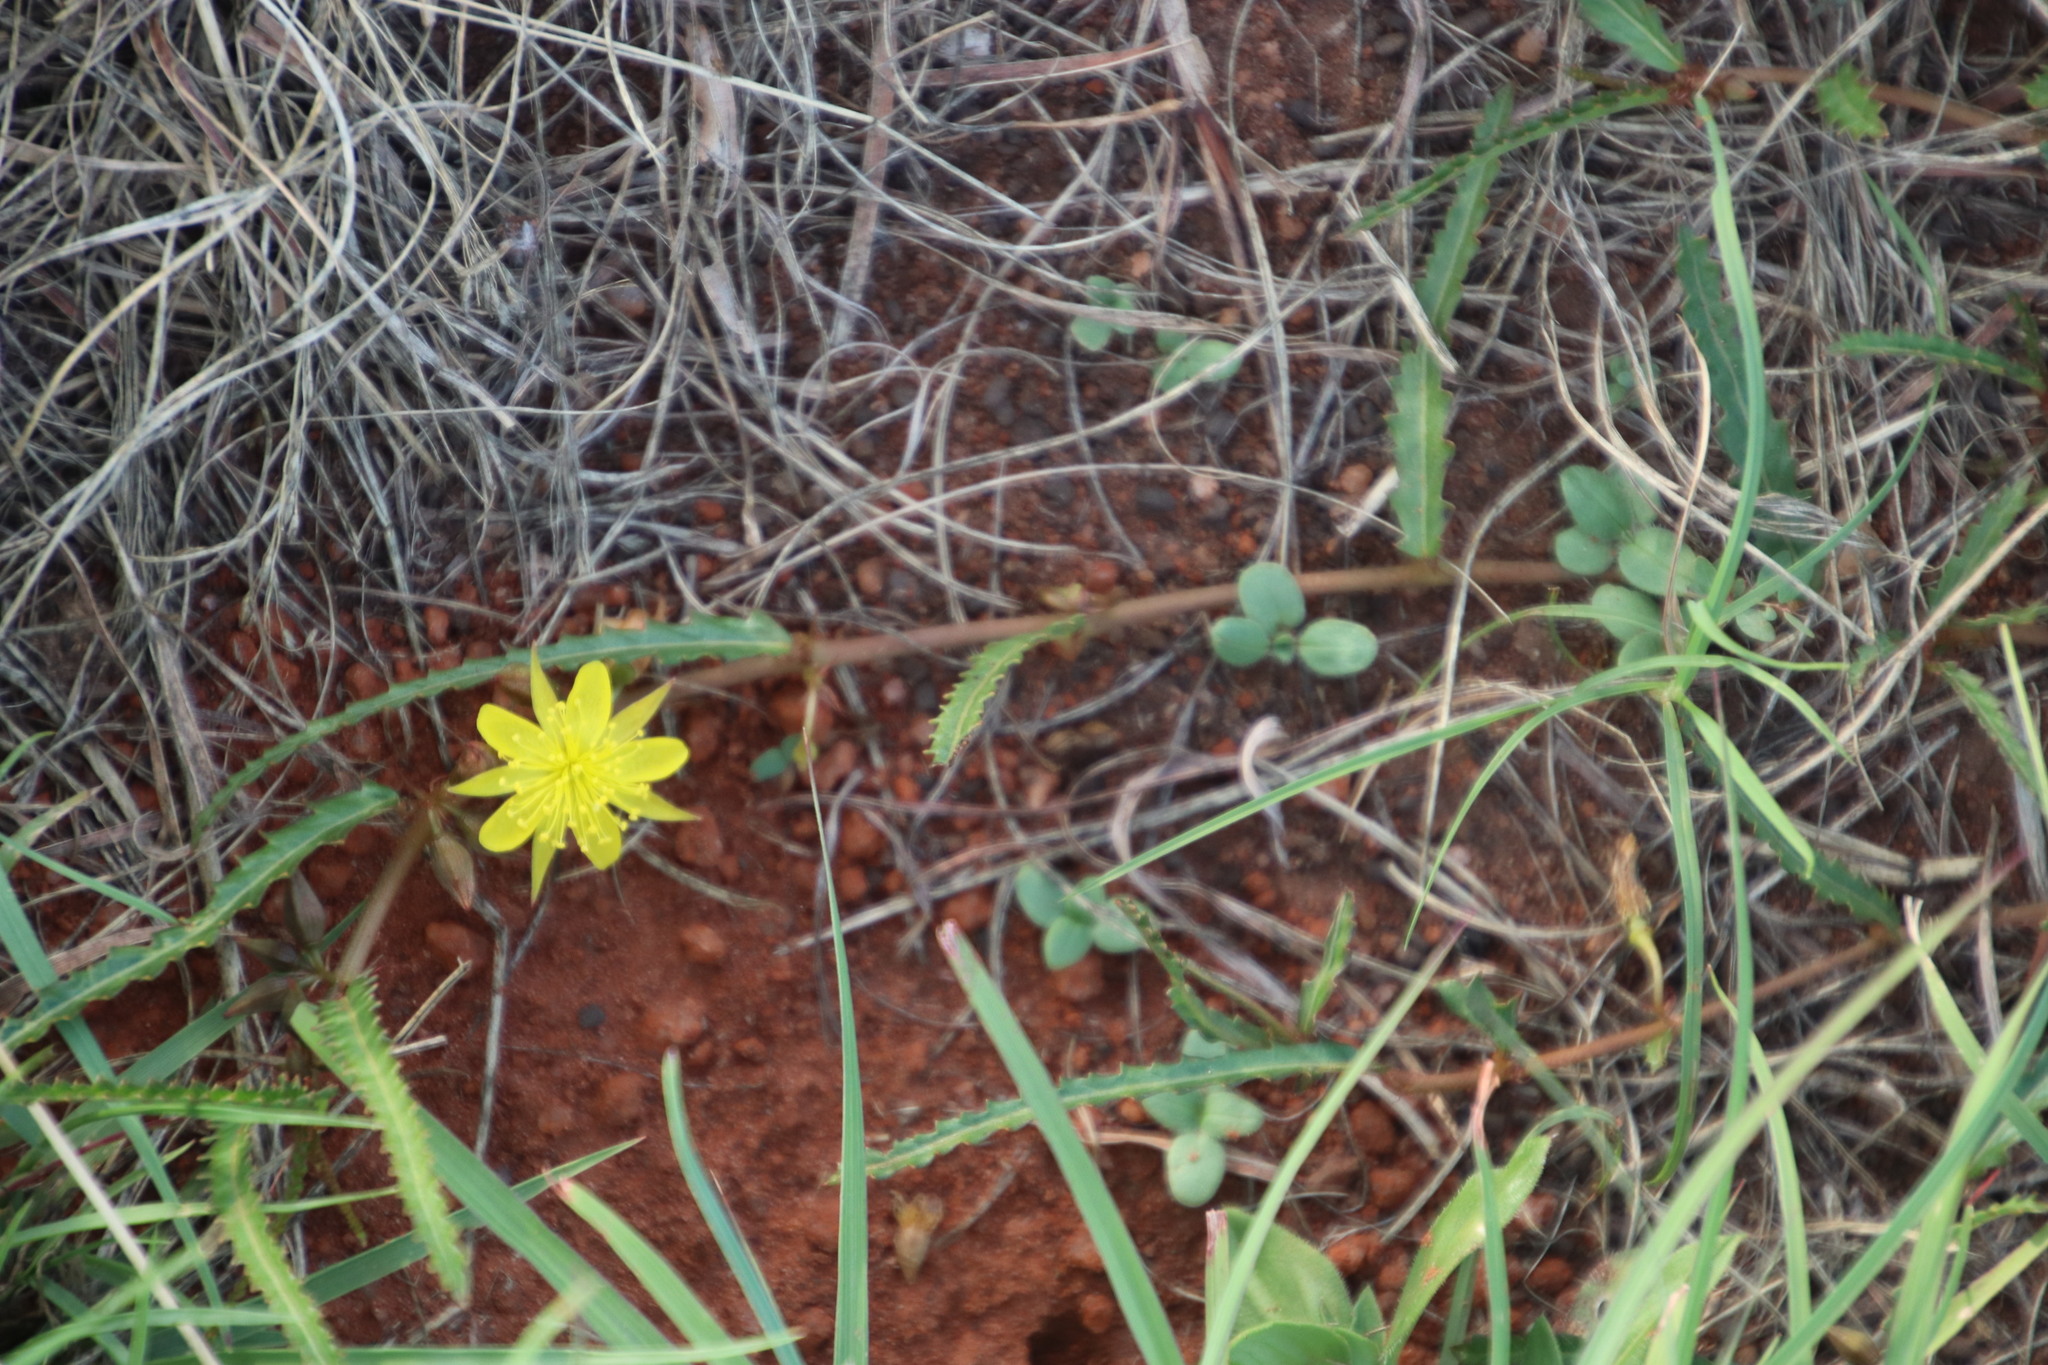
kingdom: Plantae
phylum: Tracheophyta
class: Magnoliopsida
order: Malvales
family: Malvaceae
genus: Corchorus
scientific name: Corchorus asplenifolius
